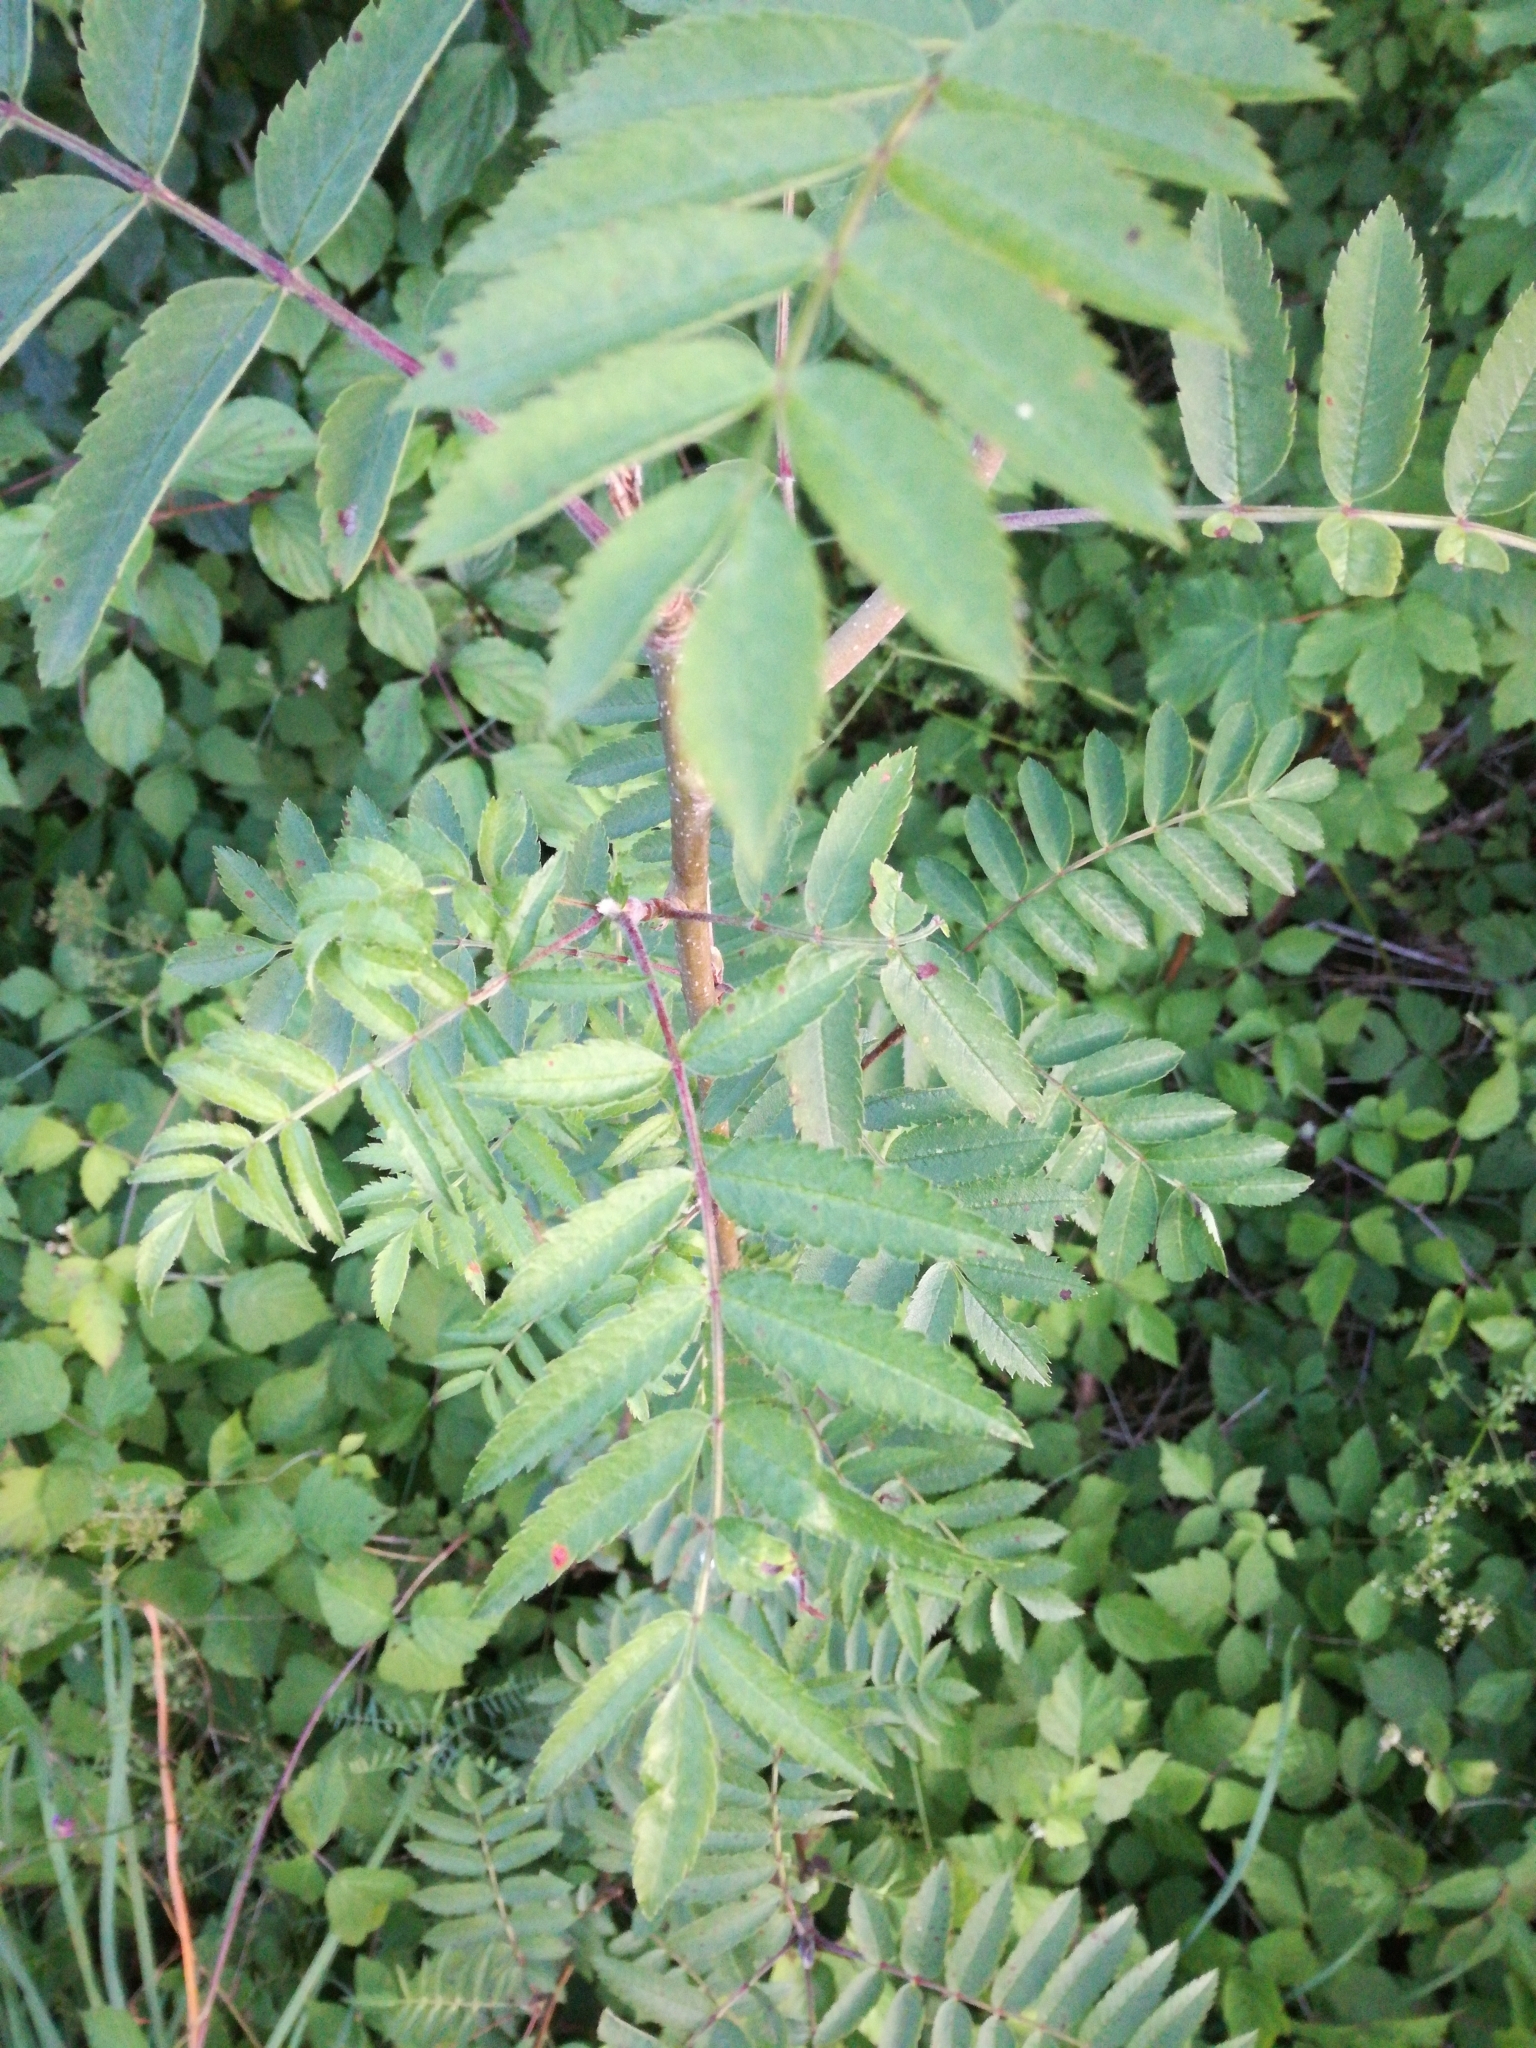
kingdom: Plantae
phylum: Tracheophyta
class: Magnoliopsida
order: Rosales
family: Rosaceae
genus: Sorbus
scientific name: Sorbus aucuparia
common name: Rowan
